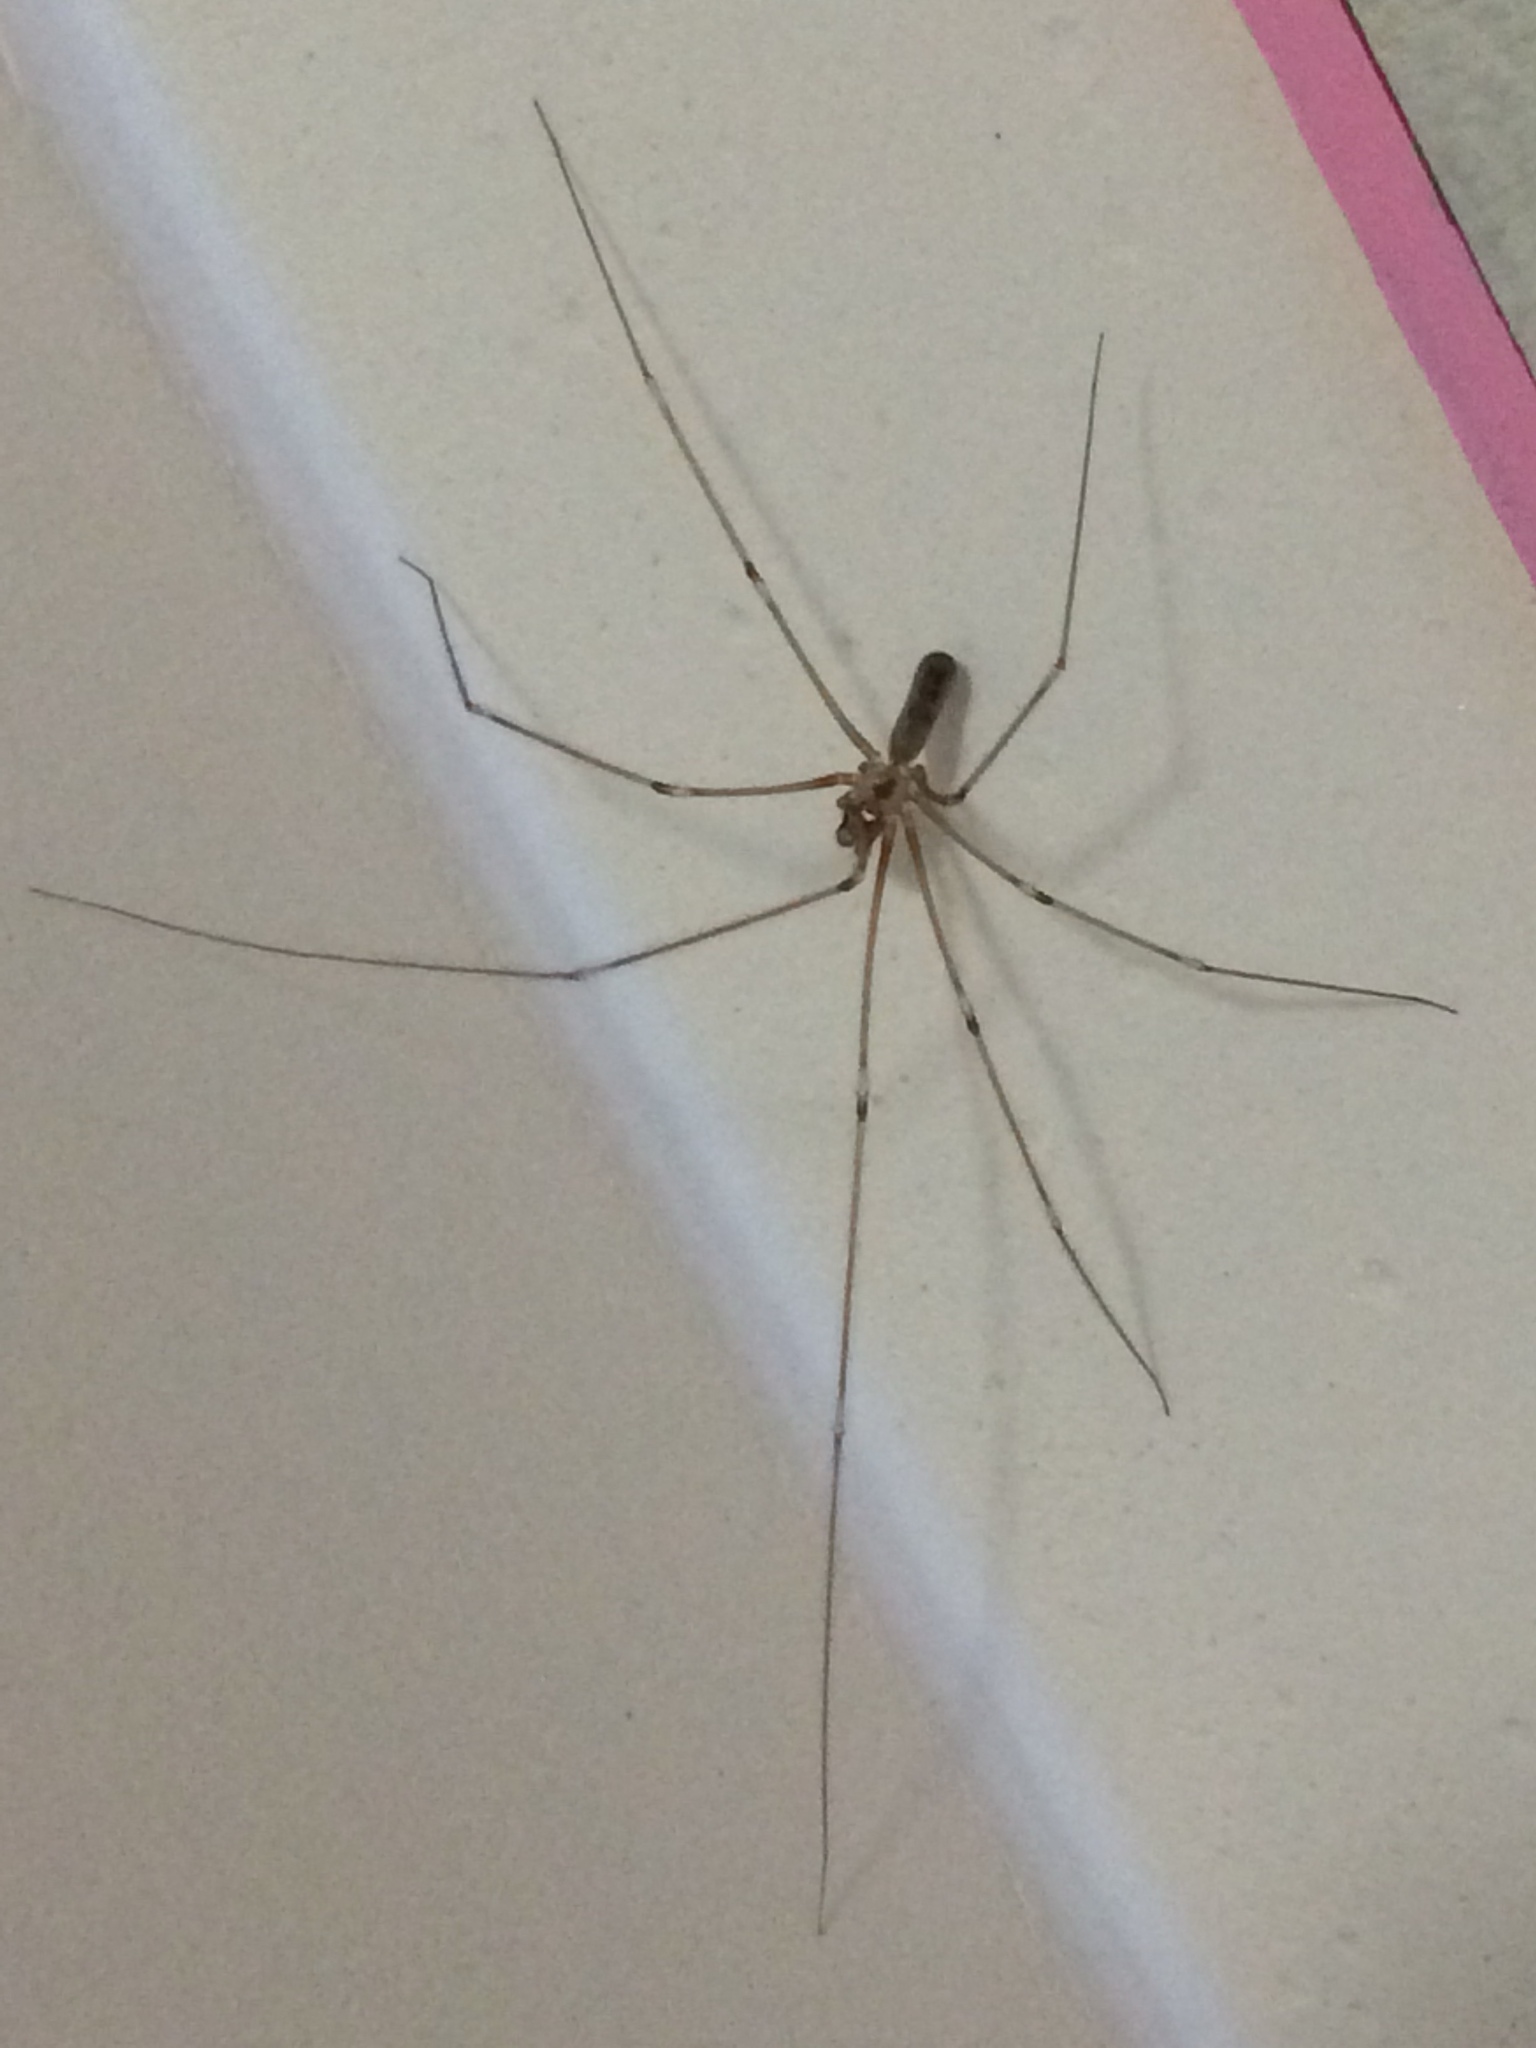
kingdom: Animalia
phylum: Arthropoda
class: Arachnida
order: Araneae
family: Pholcidae
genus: Pholcus
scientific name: Pholcus phalangioides
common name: Longbodied cellar spider
